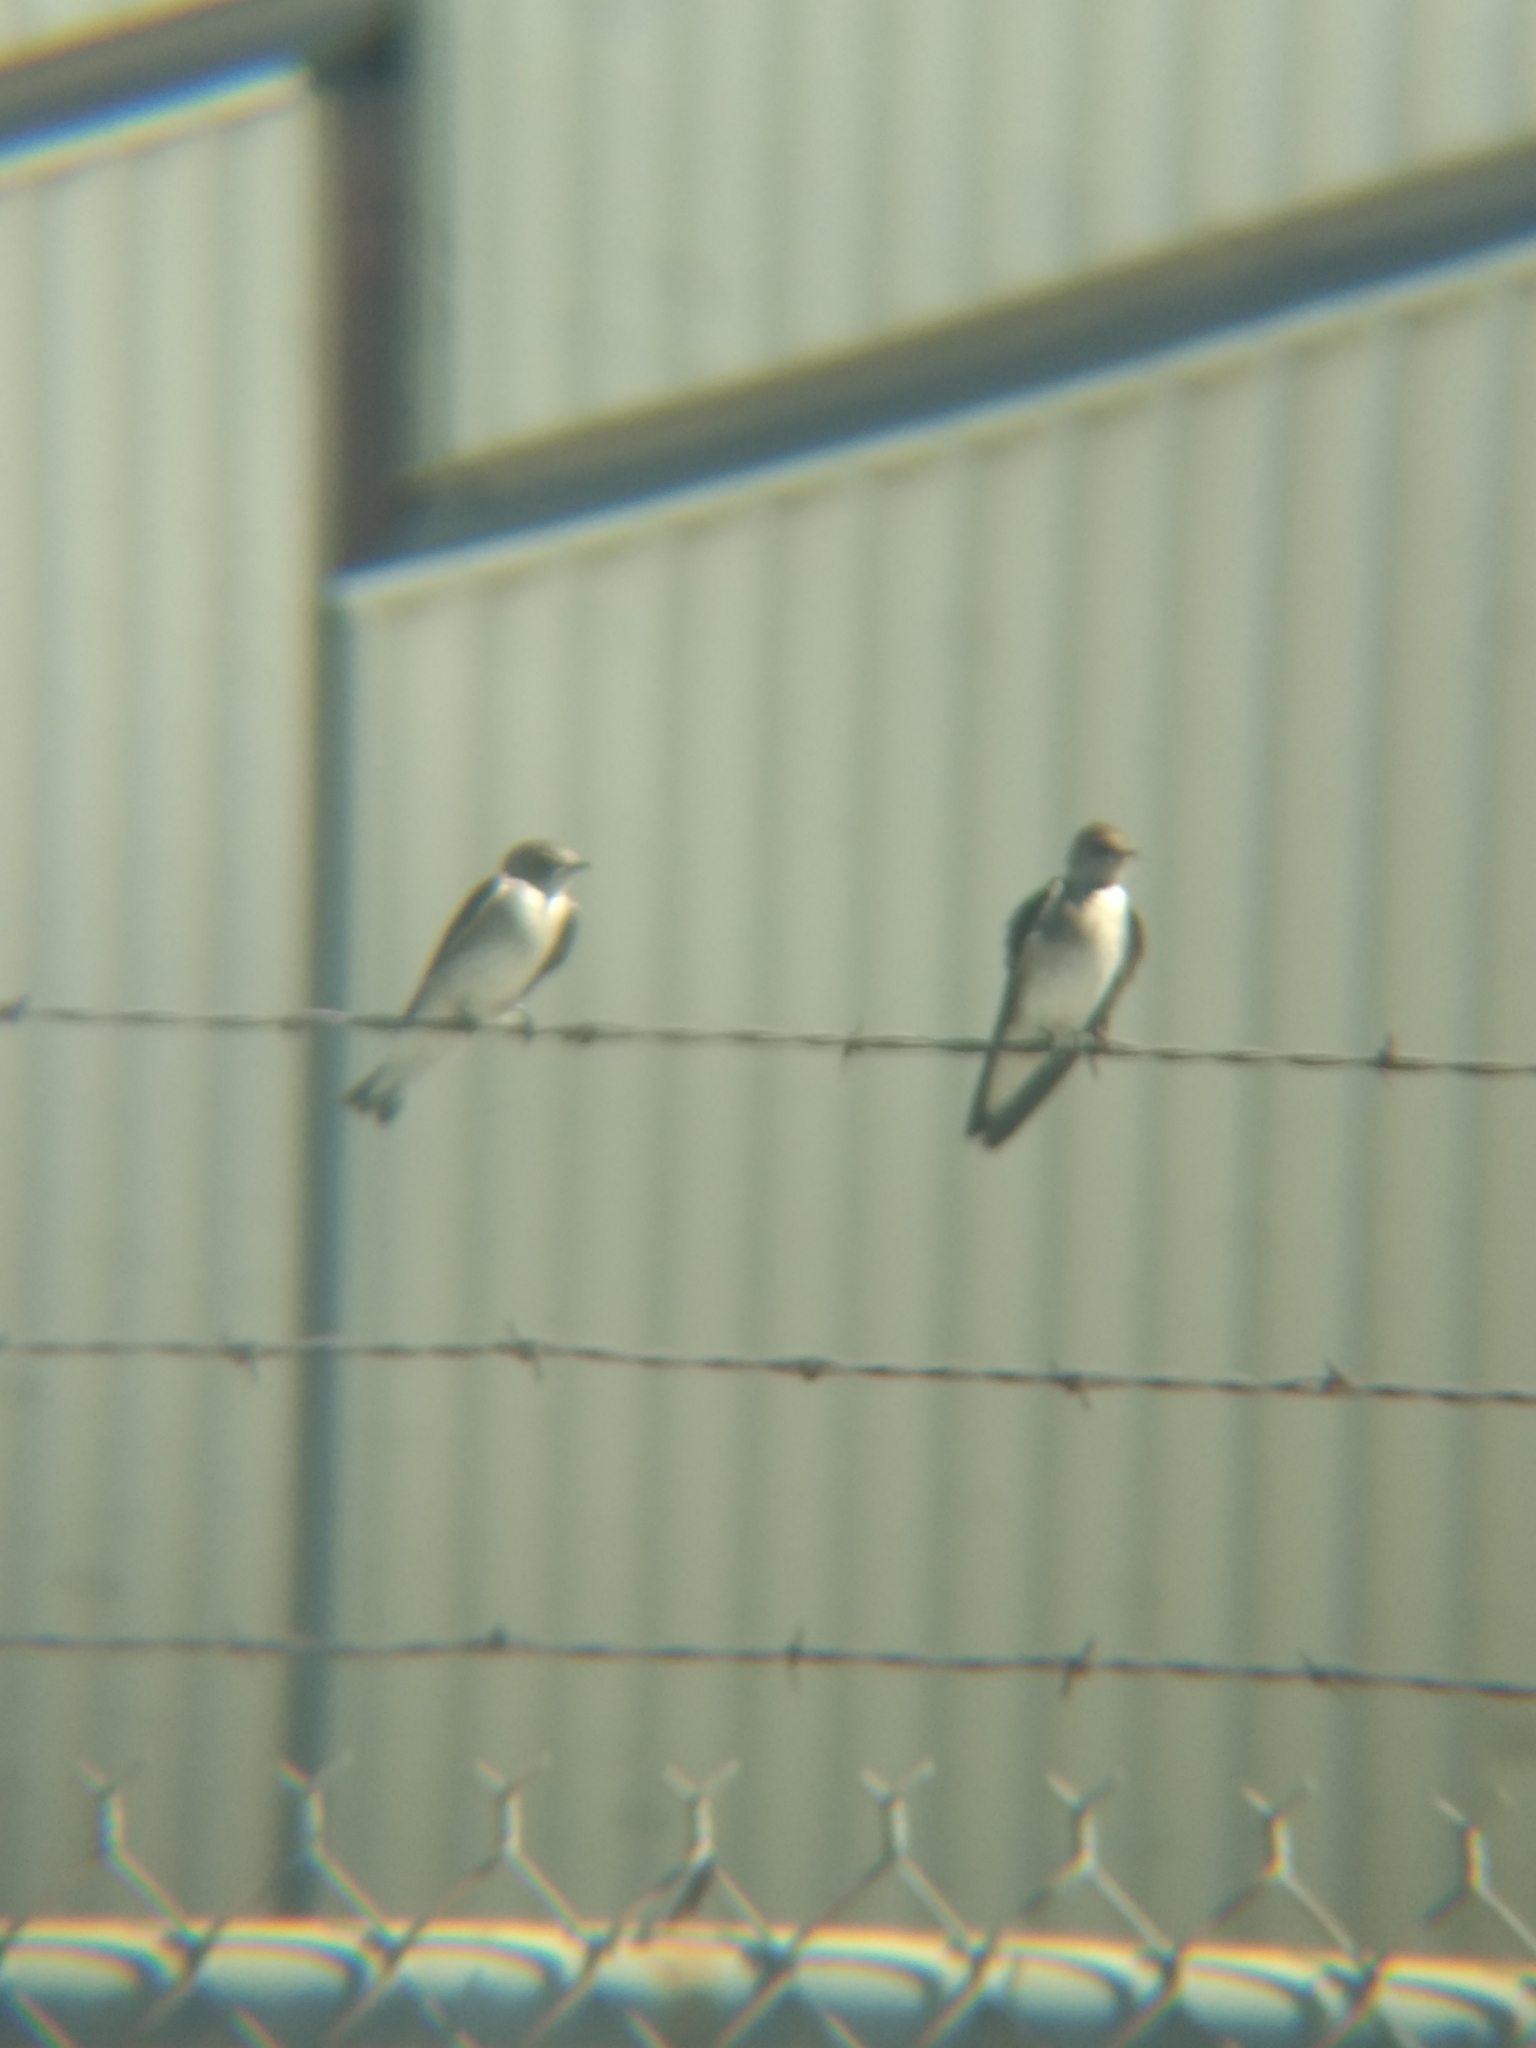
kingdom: Animalia
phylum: Chordata
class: Aves
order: Passeriformes
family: Hirundinidae
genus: Stelgidopteryx
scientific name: Stelgidopteryx serripennis
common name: Northern rough-winged swallow
